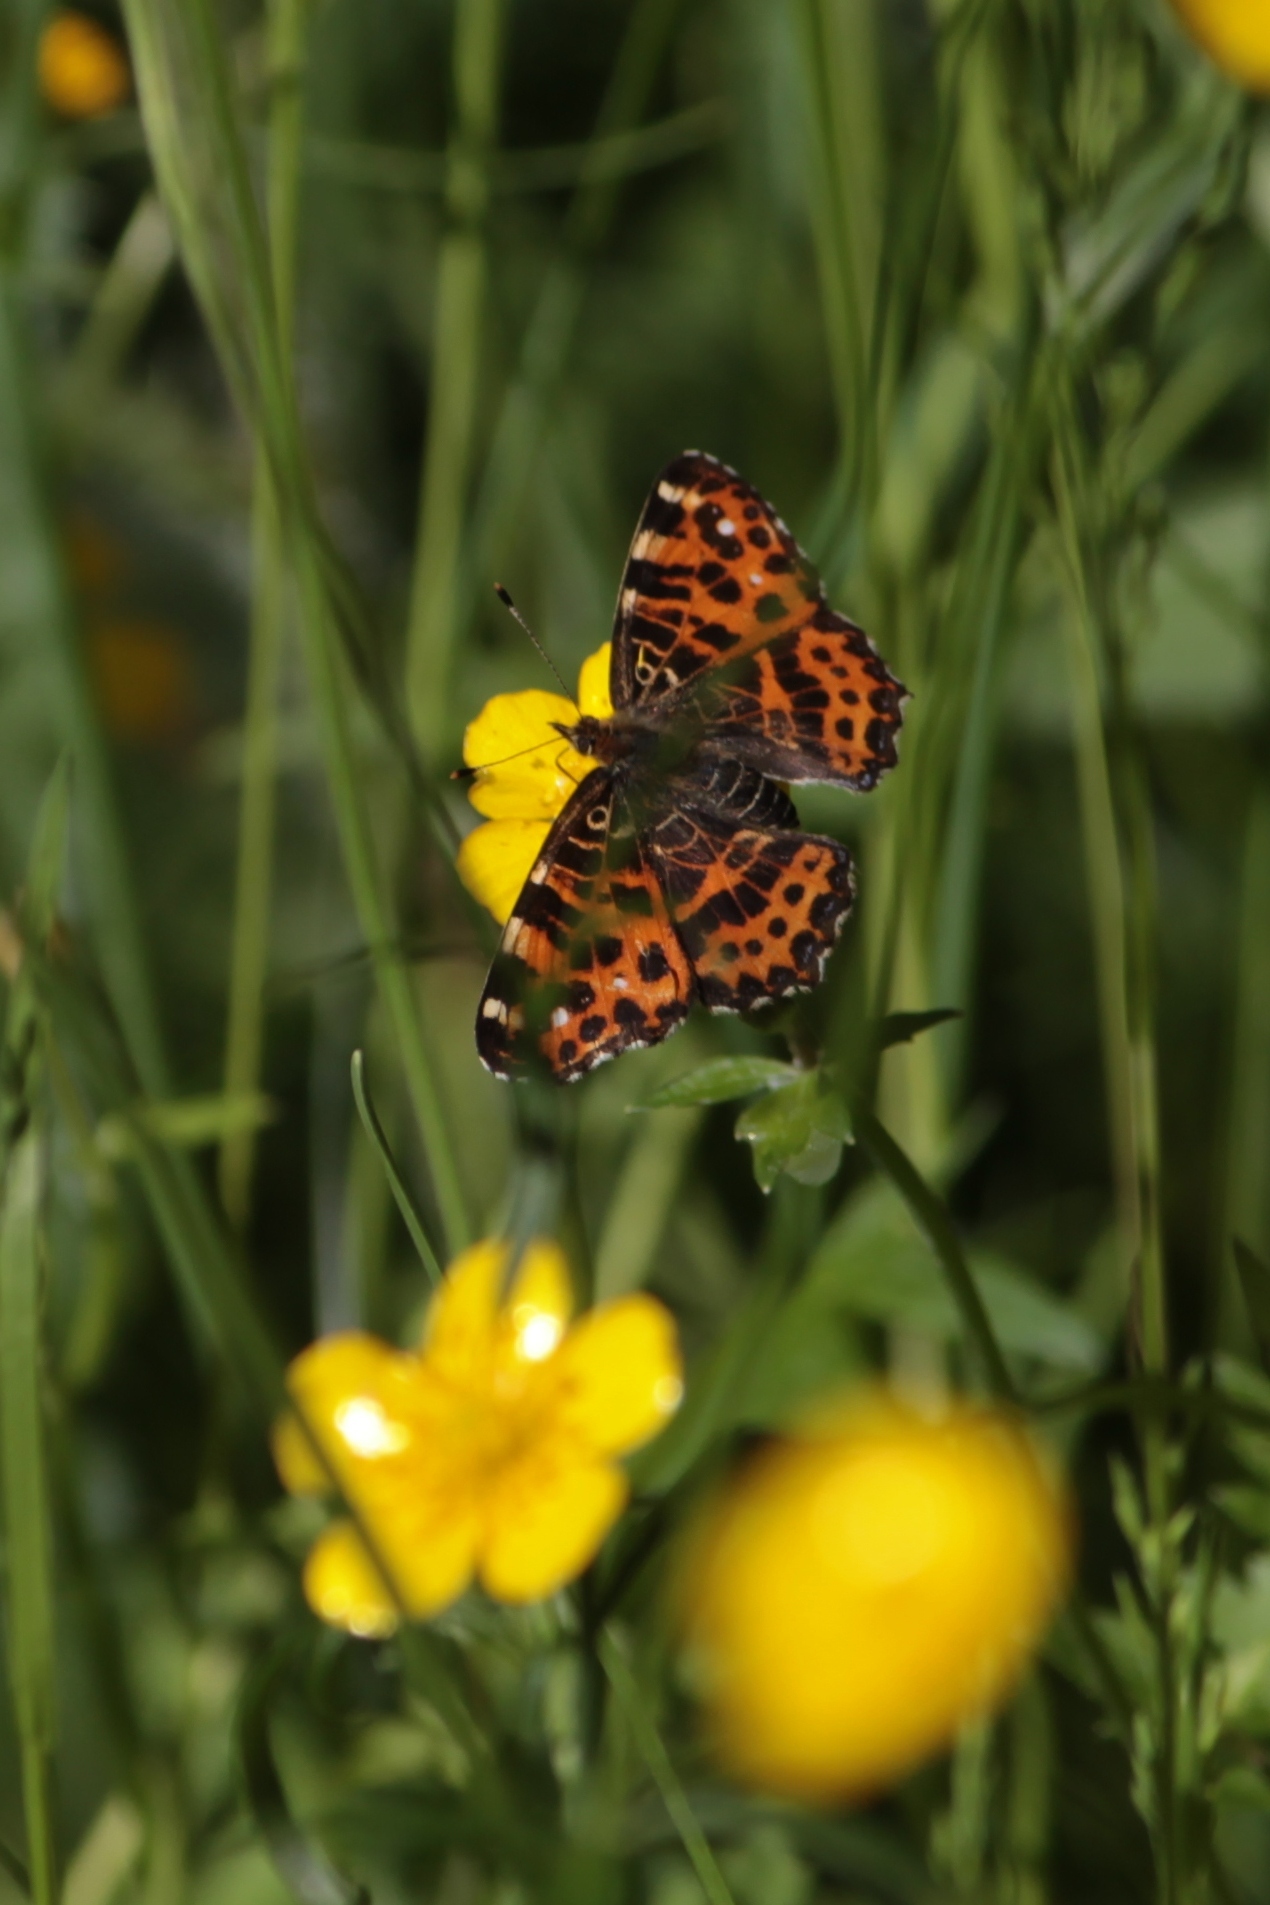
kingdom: Animalia
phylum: Arthropoda
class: Insecta
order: Lepidoptera
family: Nymphalidae
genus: Araschnia
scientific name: Araschnia levana
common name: Map butterfly
